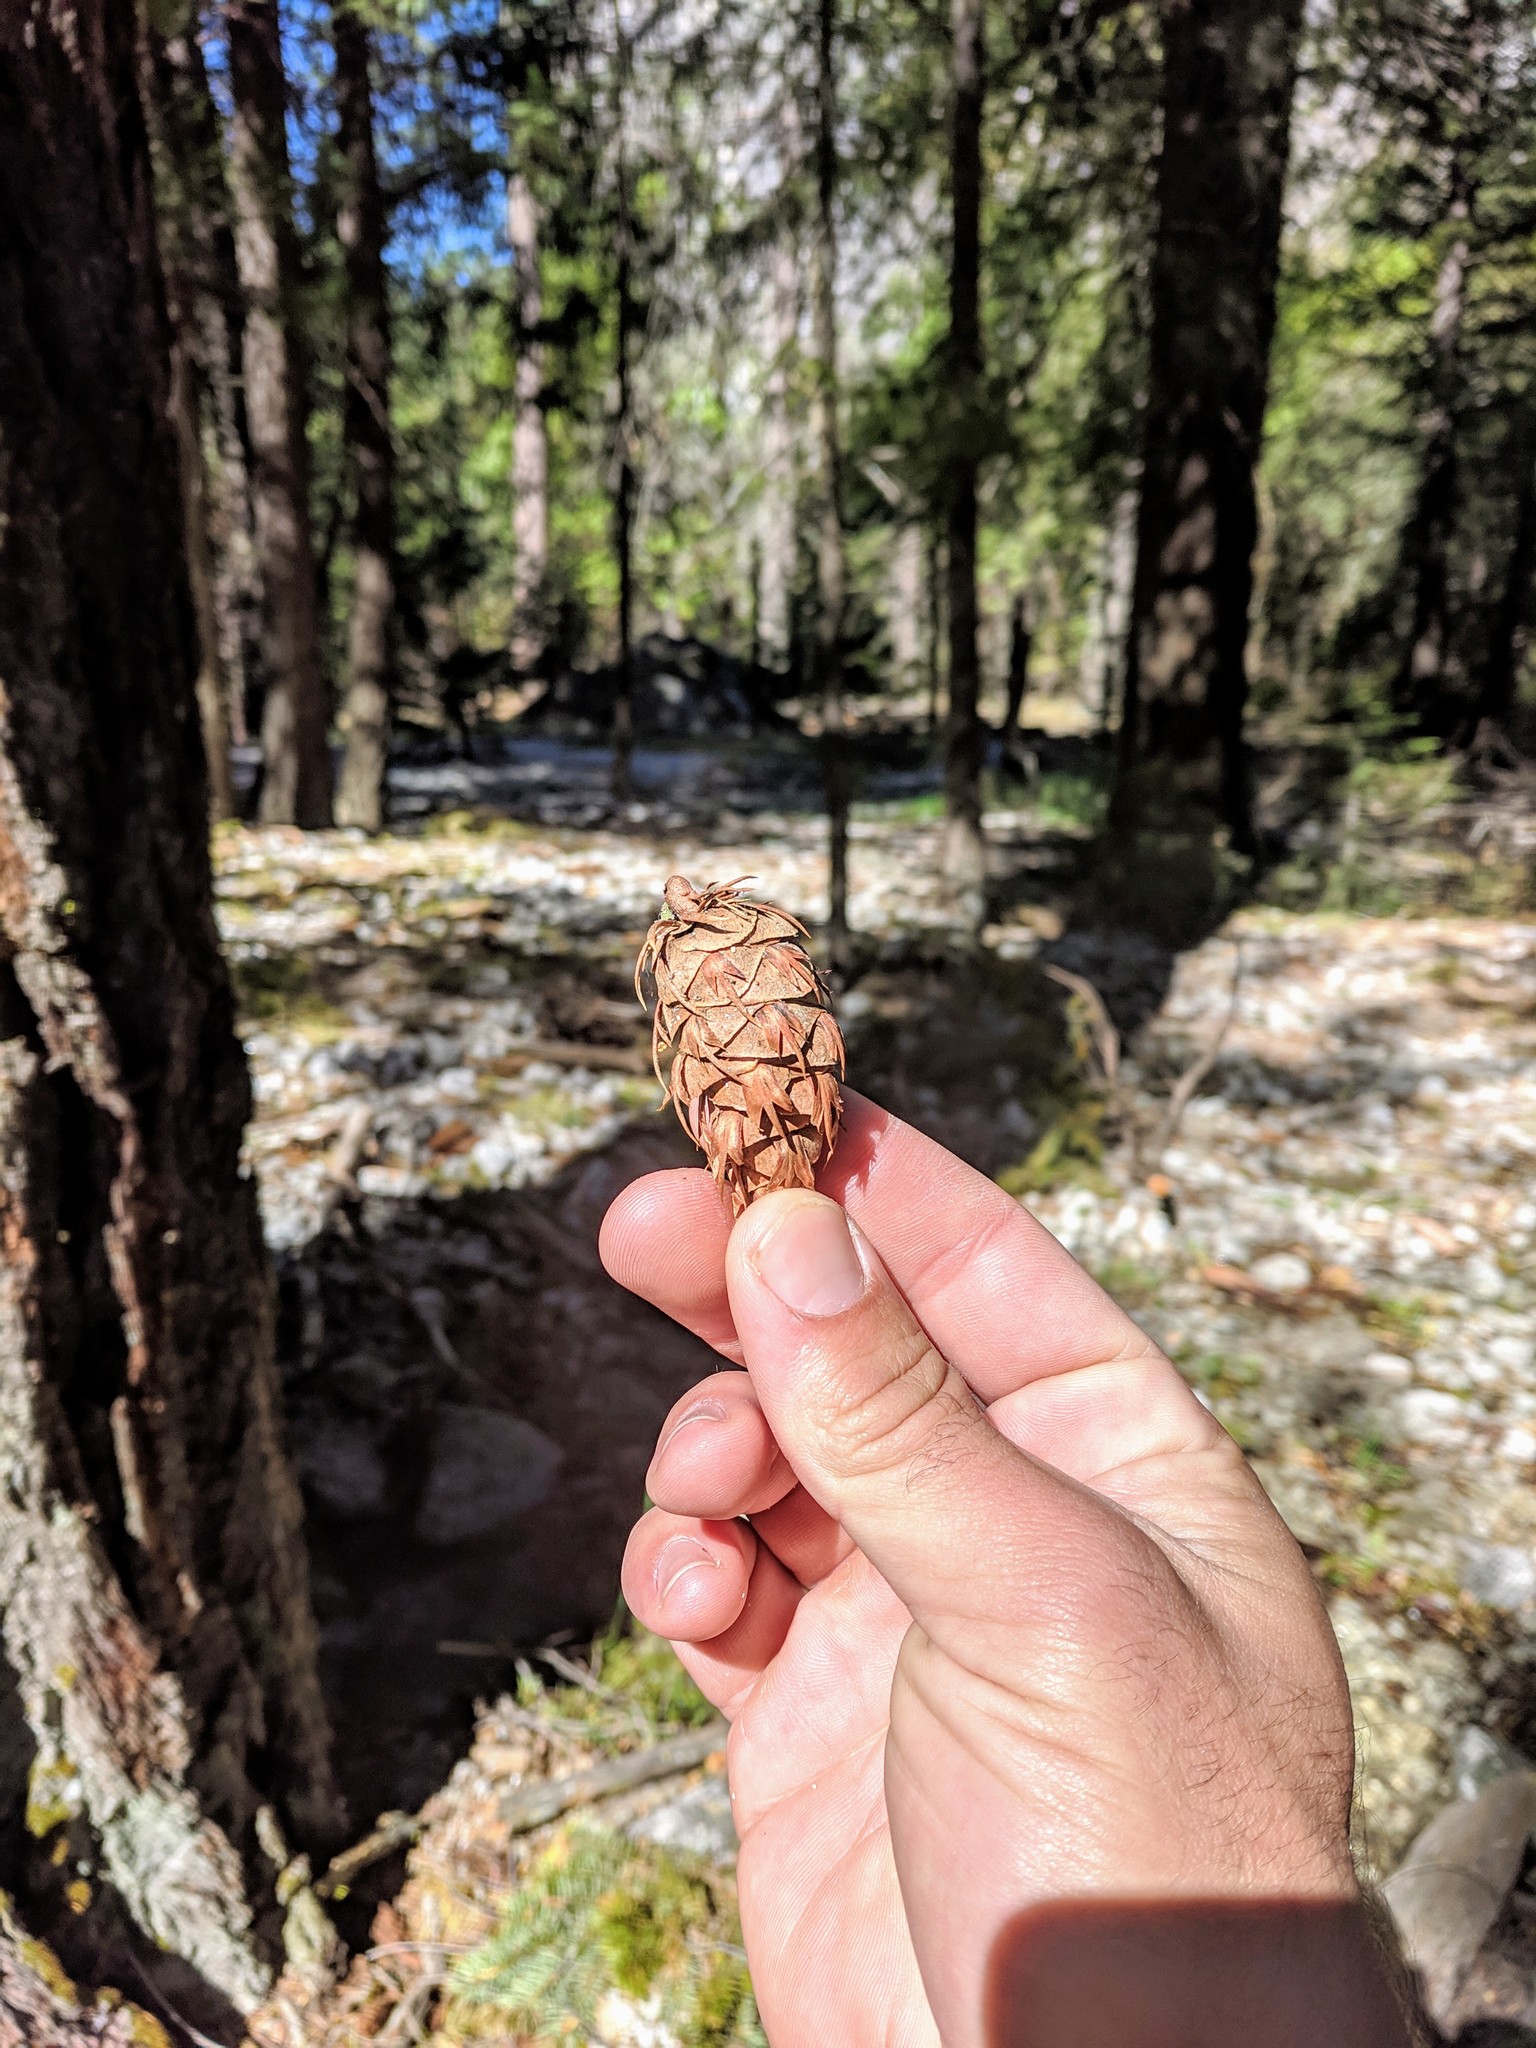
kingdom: Plantae
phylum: Tracheophyta
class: Pinopsida
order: Pinales
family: Pinaceae
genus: Pseudotsuga
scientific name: Pseudotsuga menziesii
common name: Douglas fir
